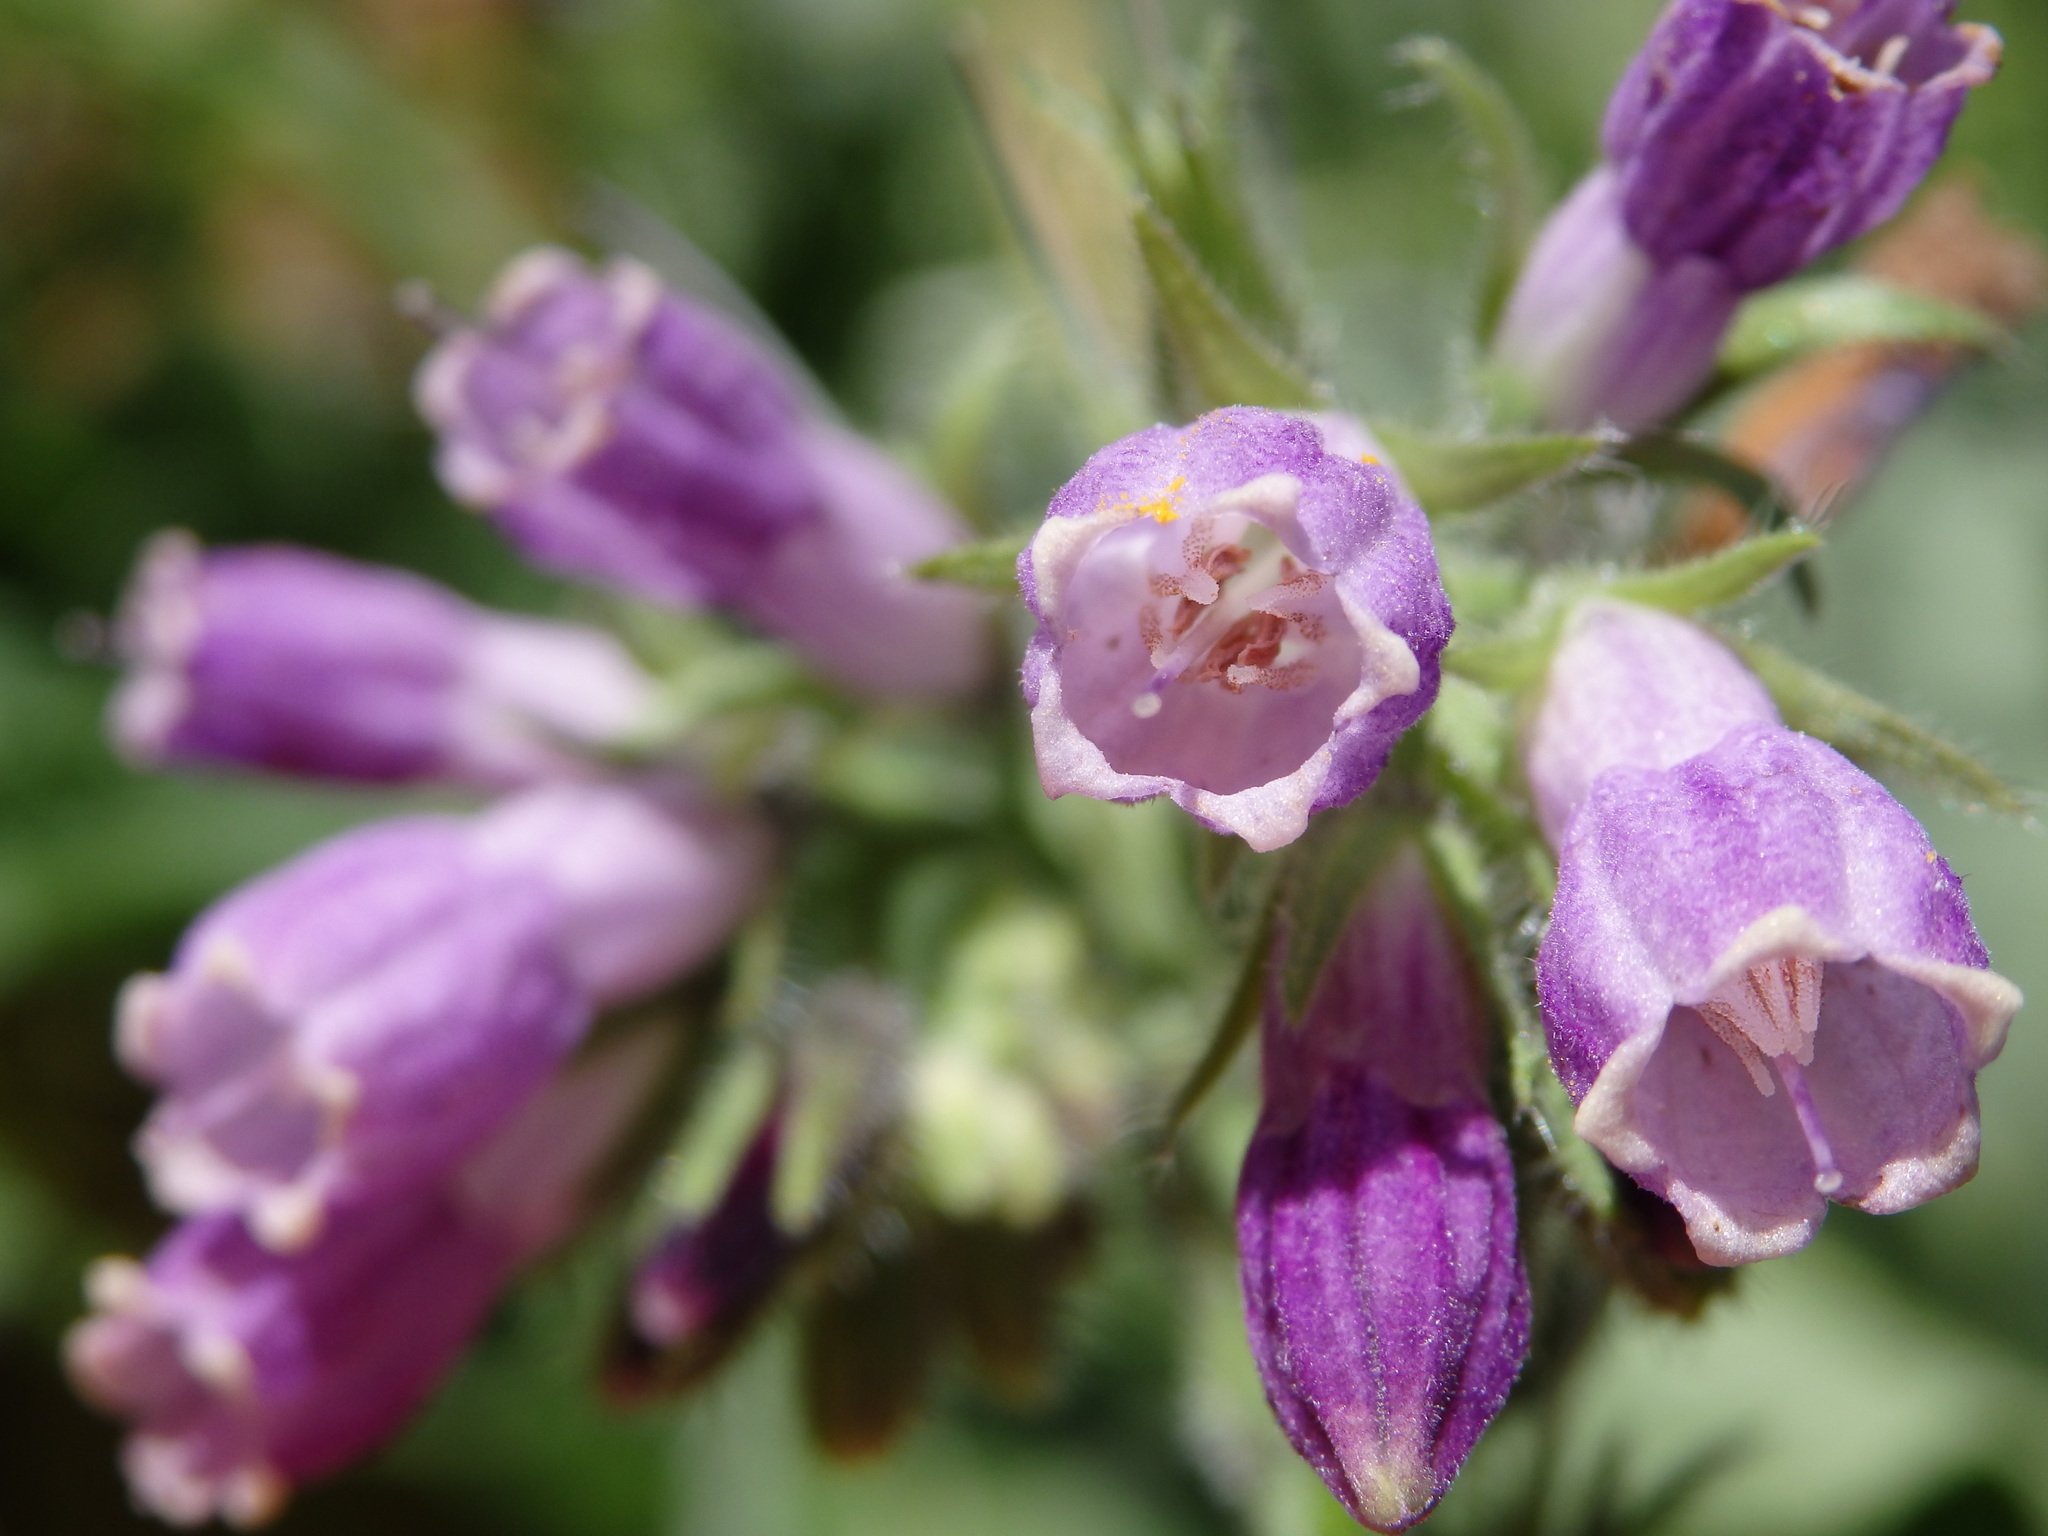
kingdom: Plantae
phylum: Tracheophyta
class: Magnoliopsida
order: Boraginales
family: Boraginaceae
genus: Symphytum
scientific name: Symphytum officinale
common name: Common comfrey
